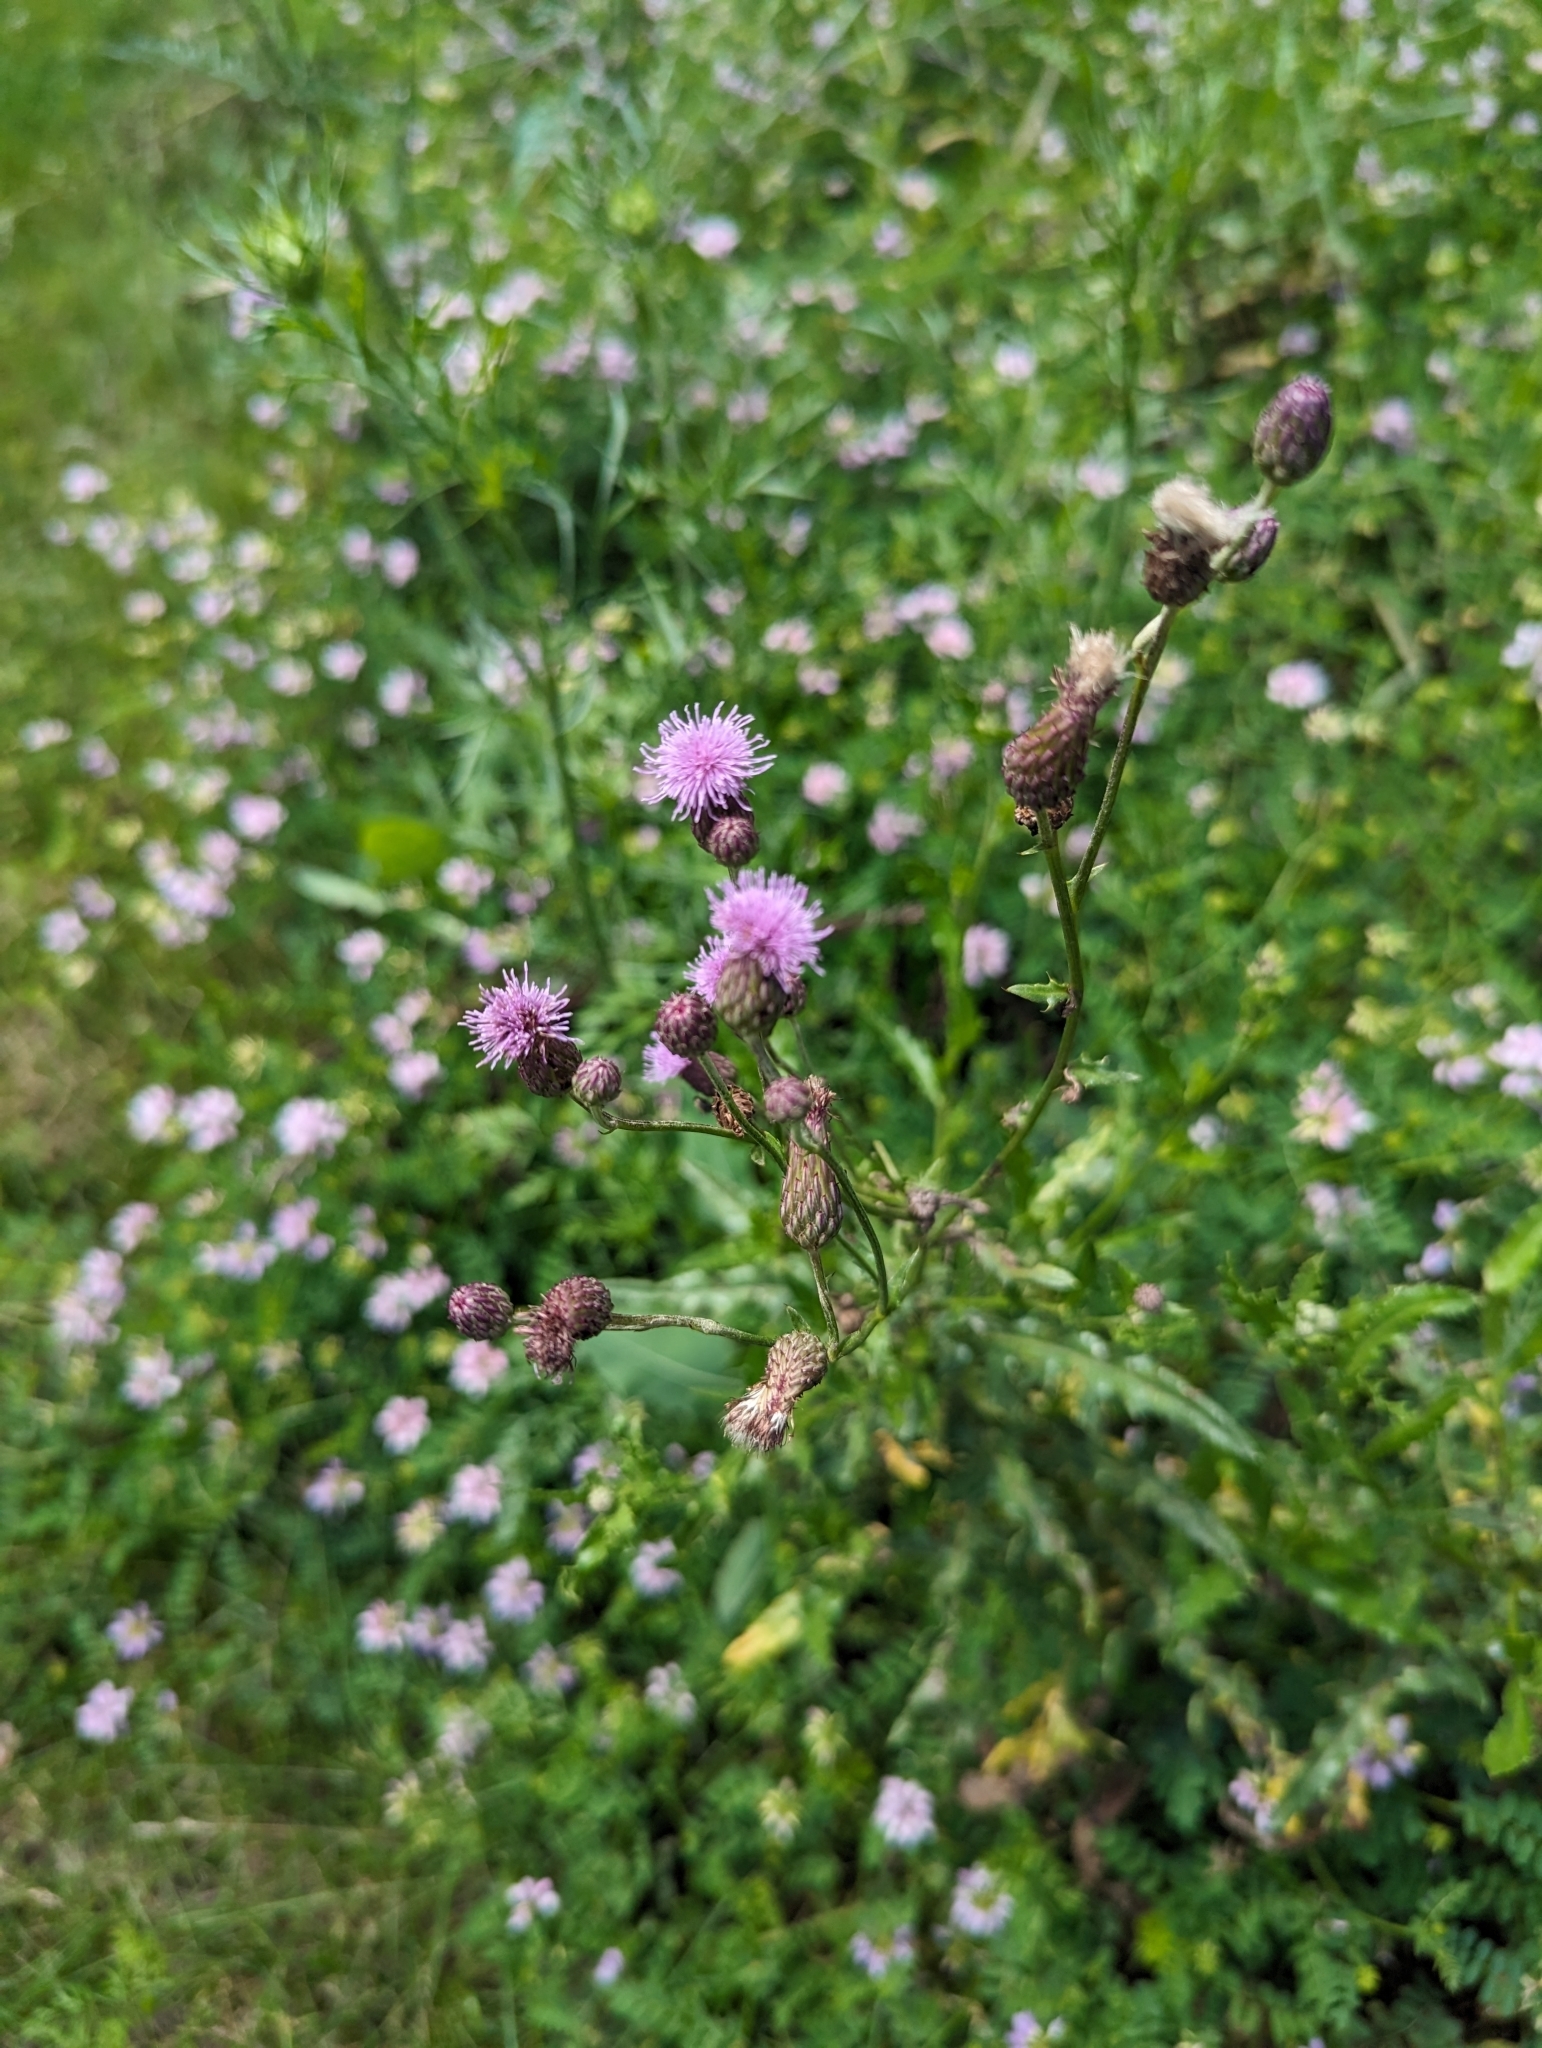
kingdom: Plantae
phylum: Tracheophyta
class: Magnoliopsida
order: Asterales
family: Asteraceae
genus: Cirsium
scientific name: Cirsium arvense
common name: Creeping thistle
